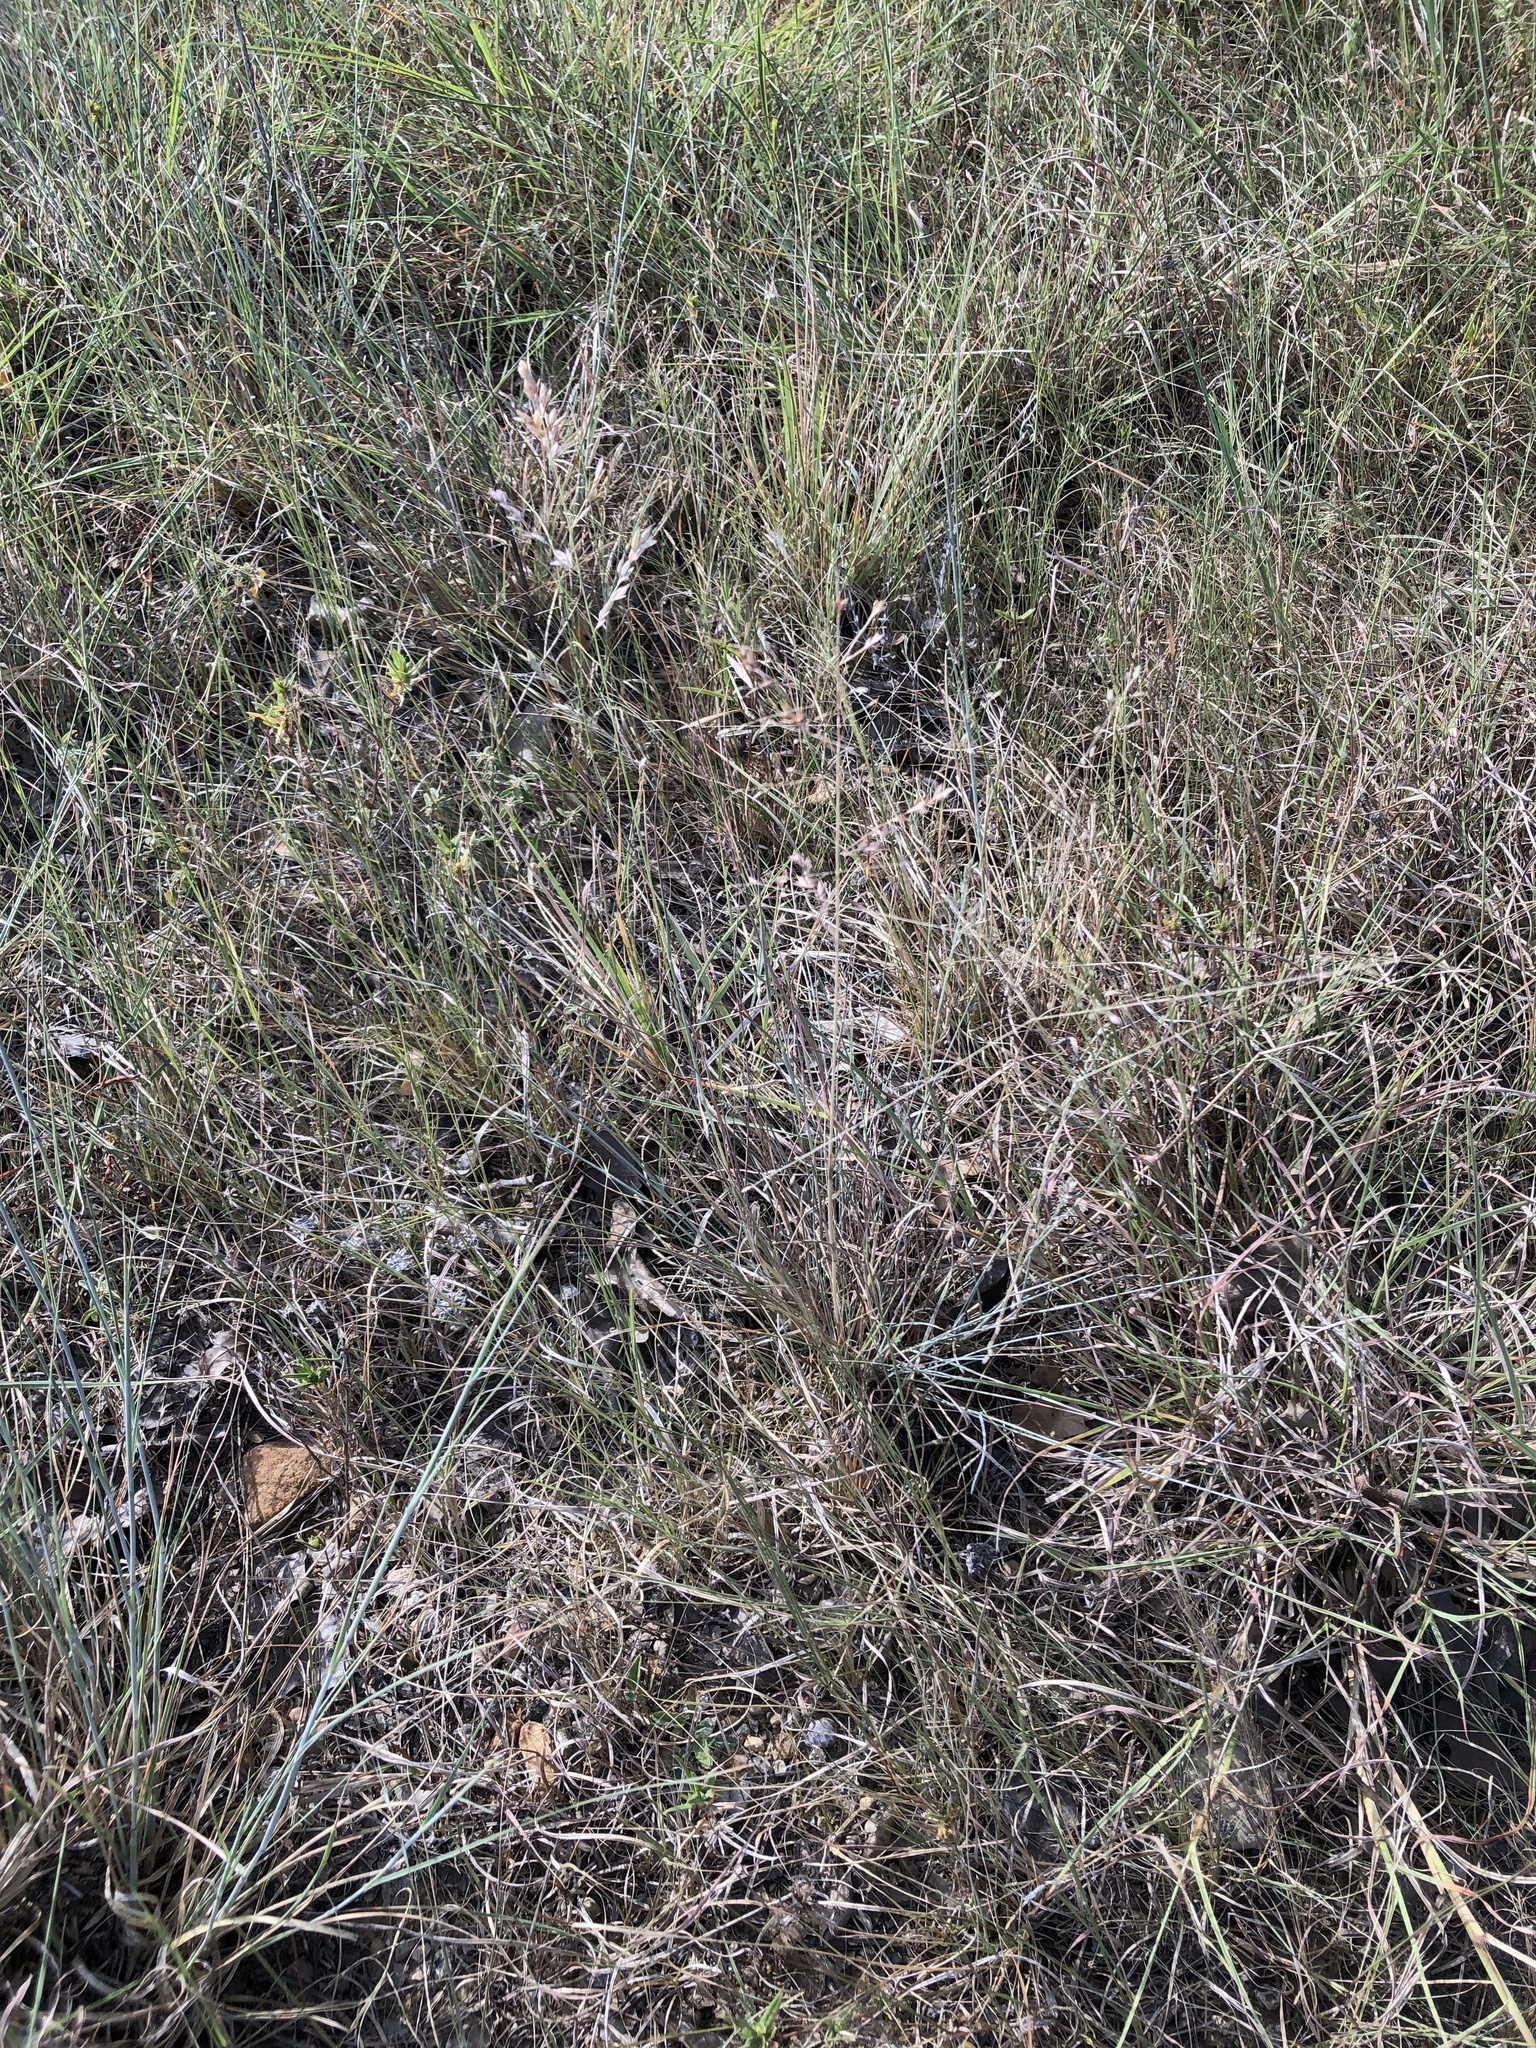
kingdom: Plantae
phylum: Tracheophyta
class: Liliopsida
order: Poales
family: Poaceae
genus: Eragrostis
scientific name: Eragrostis secundiflora
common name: Red love grass
